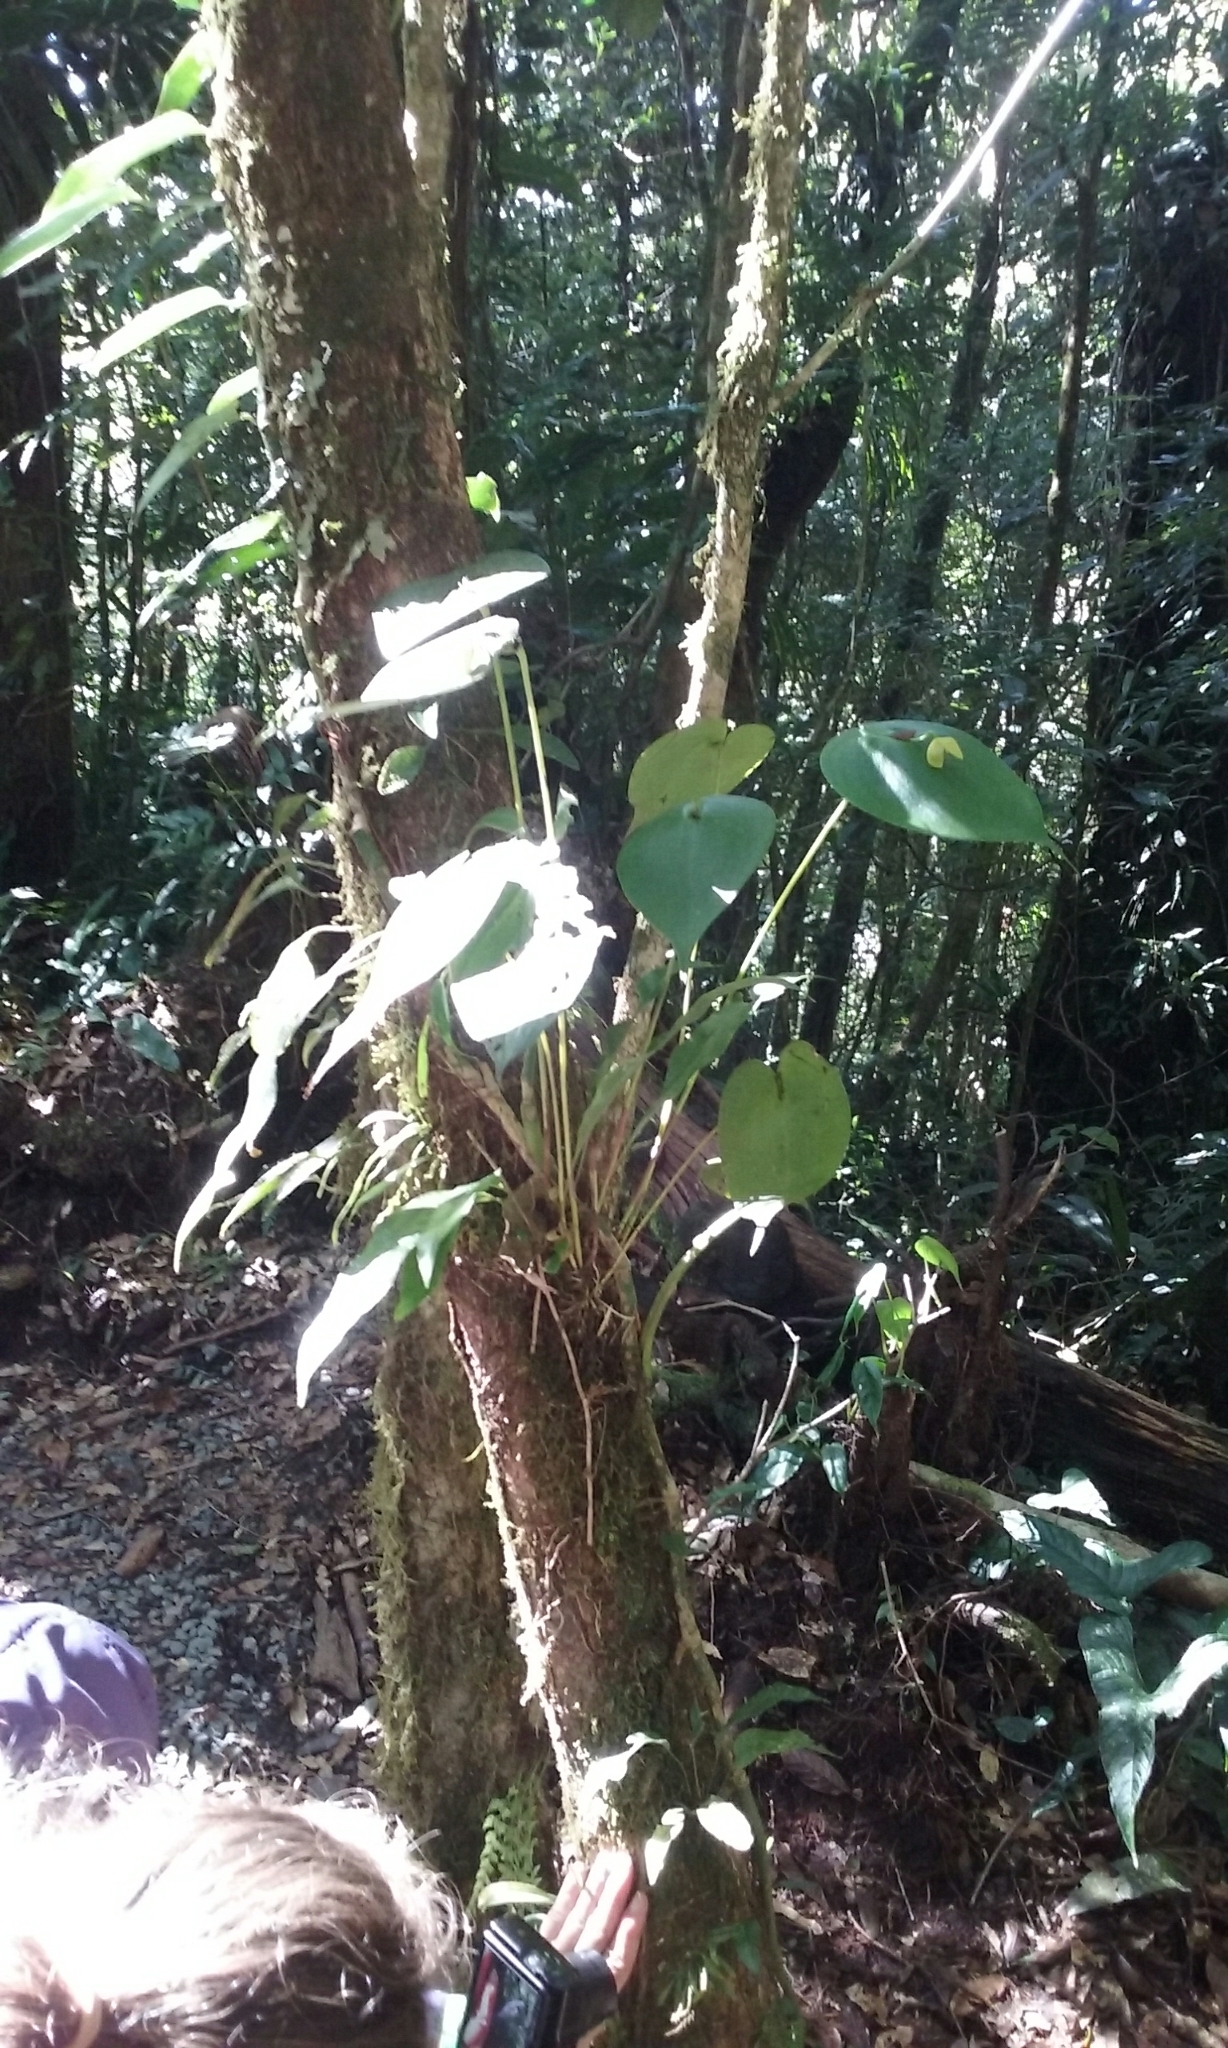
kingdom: Plantae
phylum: Tracheophyta
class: Liliopsida
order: Asparagales
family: Orchidaceae
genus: Pleurothallis
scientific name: Pleurothallis titan
